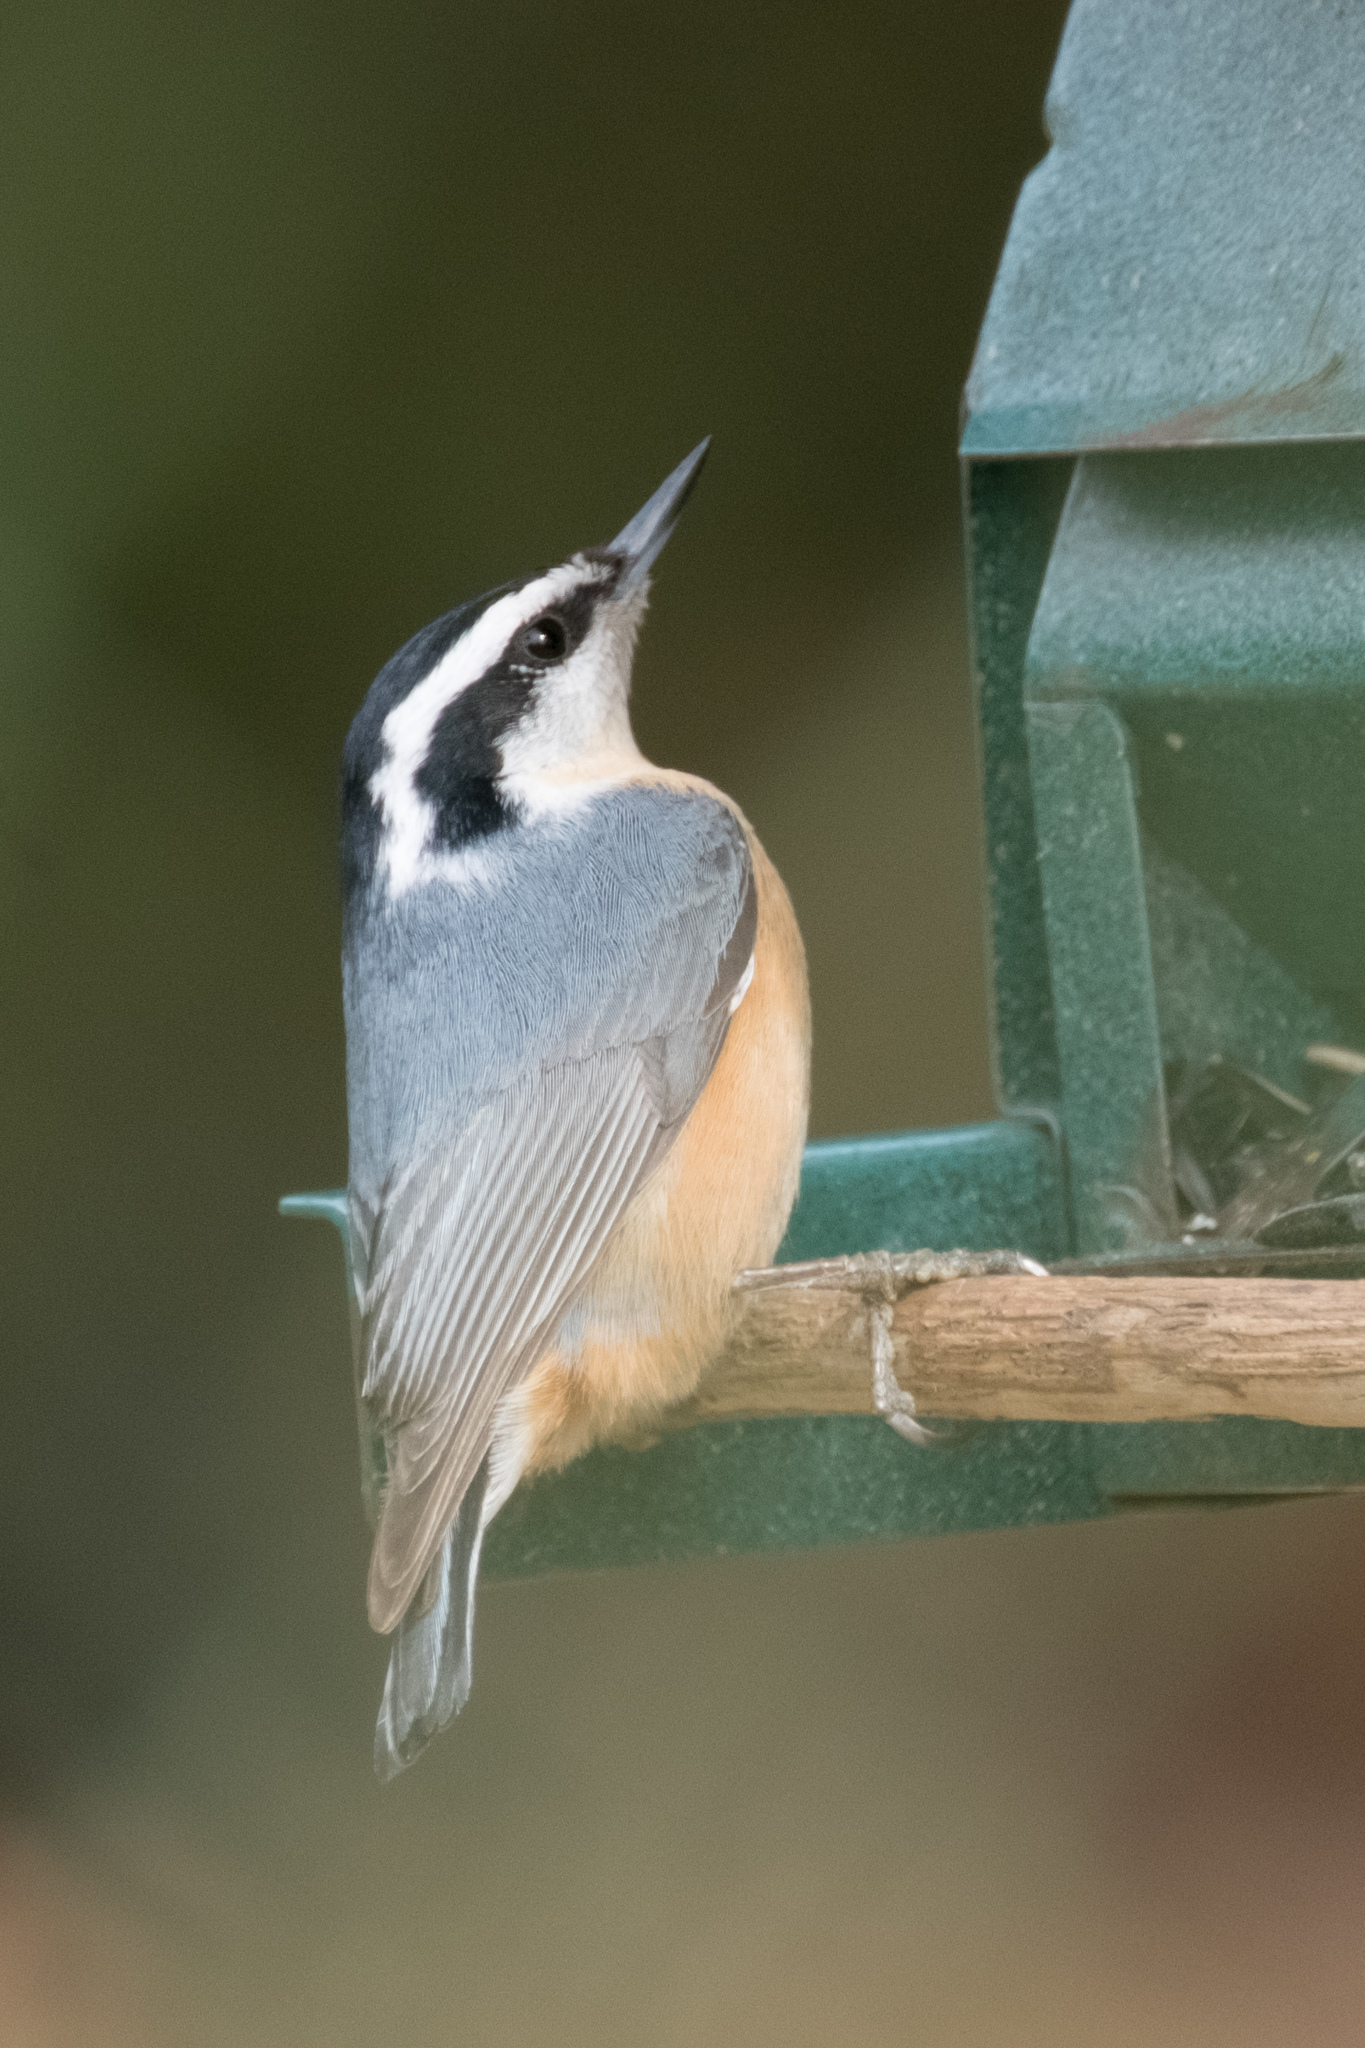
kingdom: Animalia
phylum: Chordata
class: Aves
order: Passeriformes
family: Sittidae
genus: Sitta
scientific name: Sitta canadensis
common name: Red-breasted nuthatch
